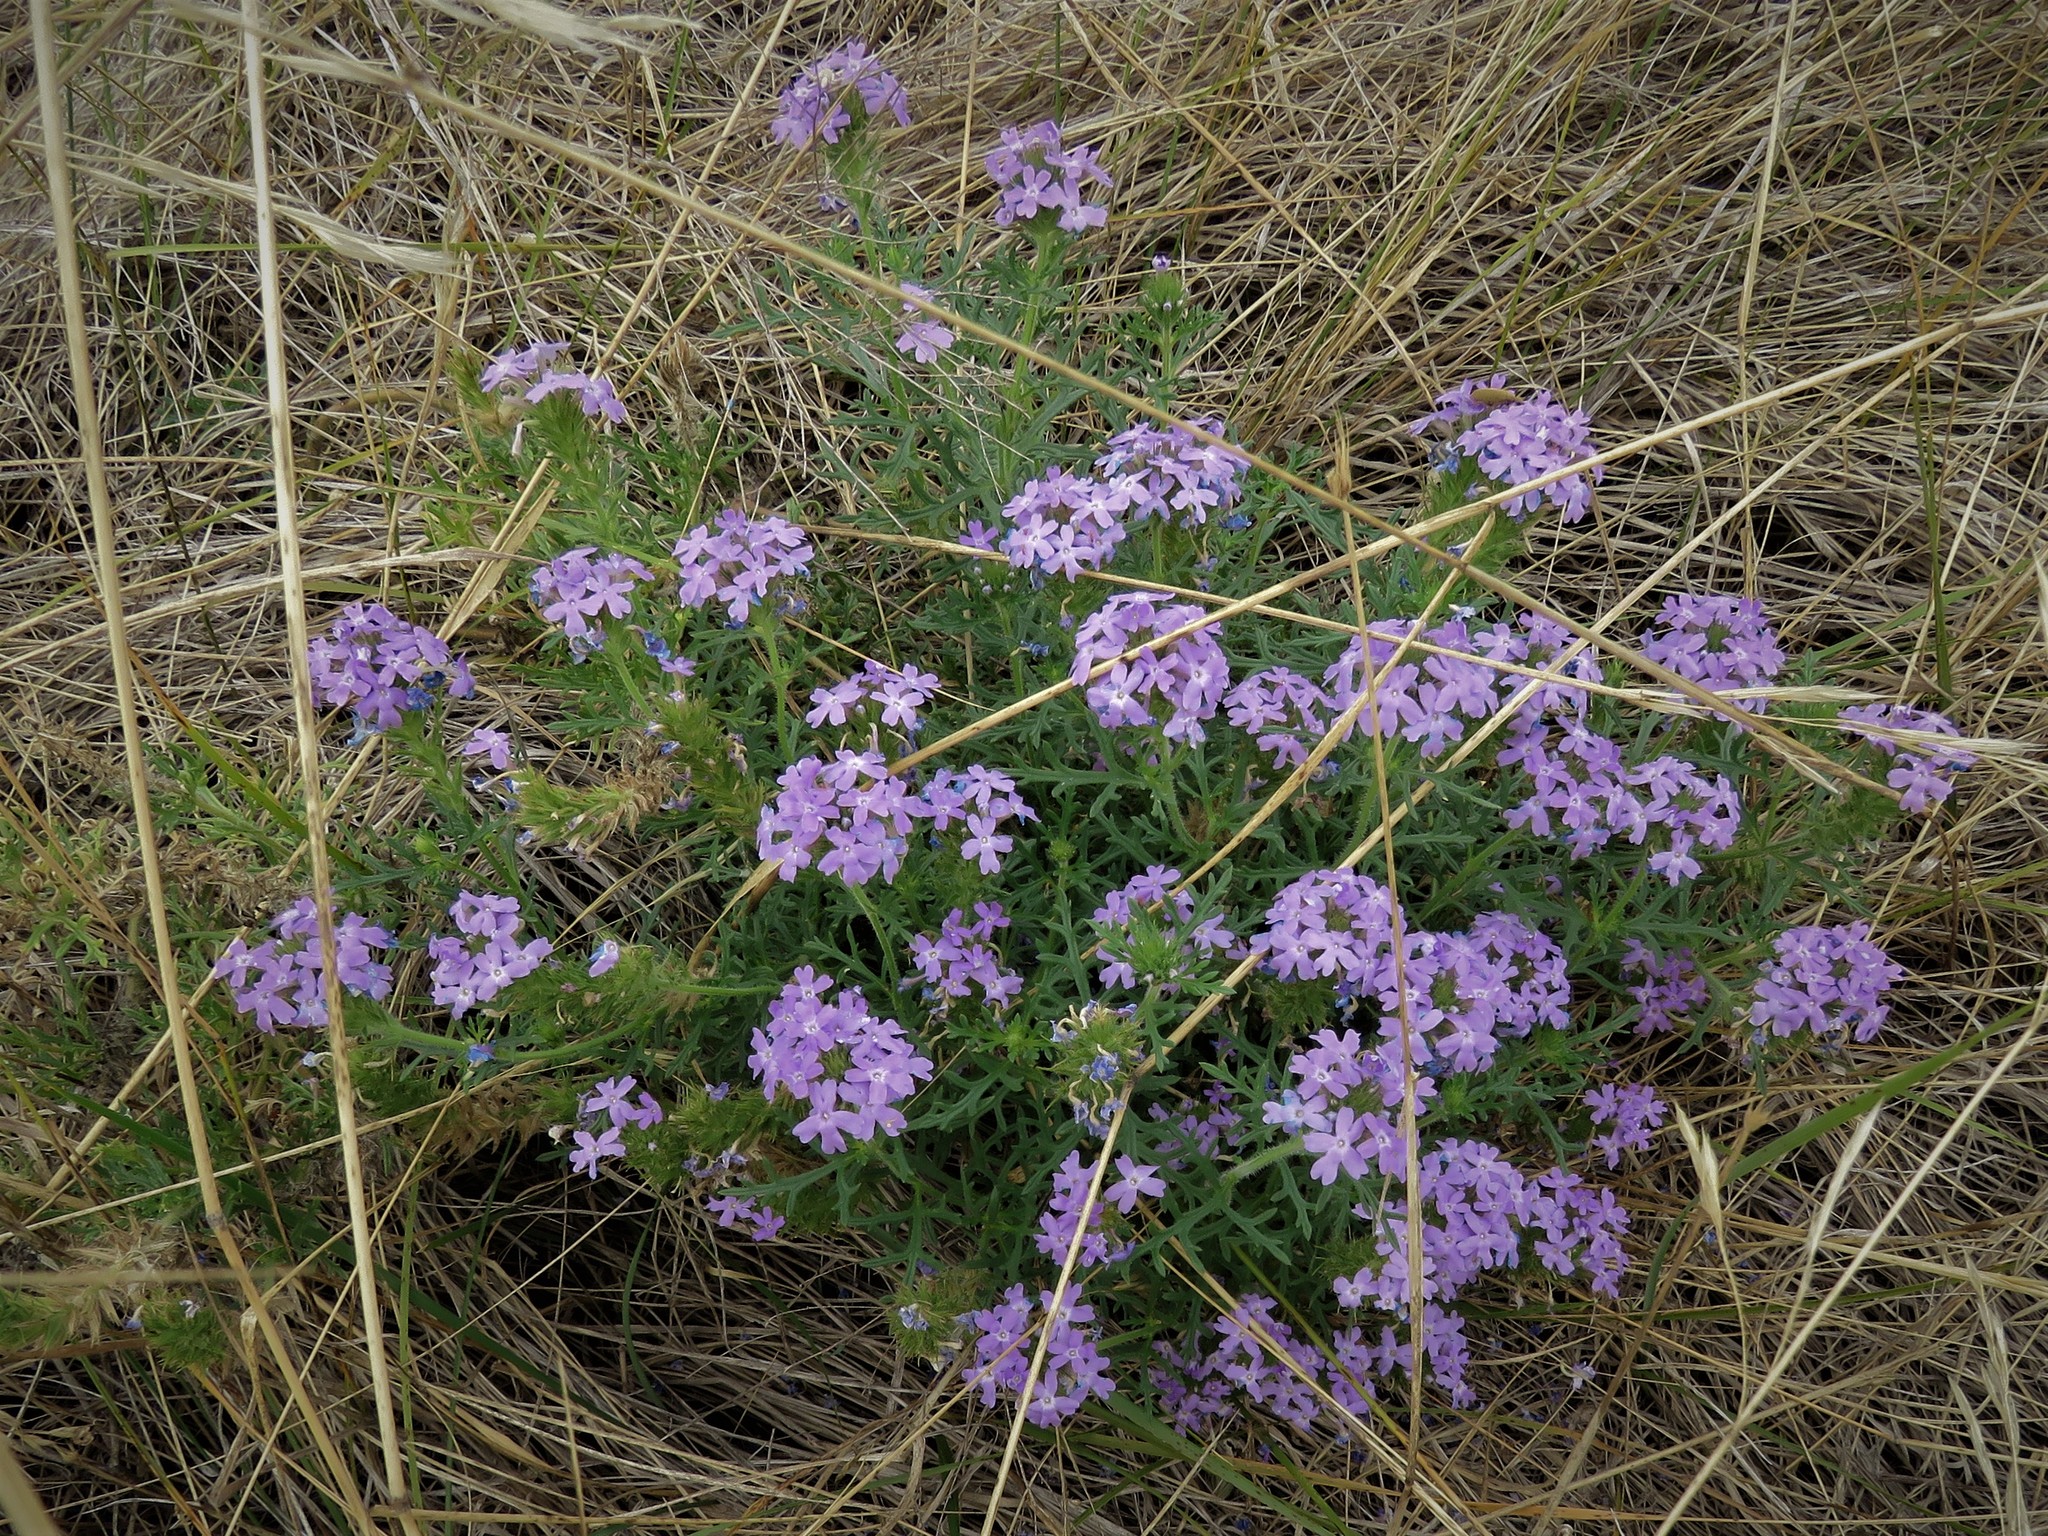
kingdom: Plantae
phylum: Tracheophyta
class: Magnoliopsida
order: Lamiales
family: Verbenaceae
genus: Verbena
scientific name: Verbena bipinnatifida
